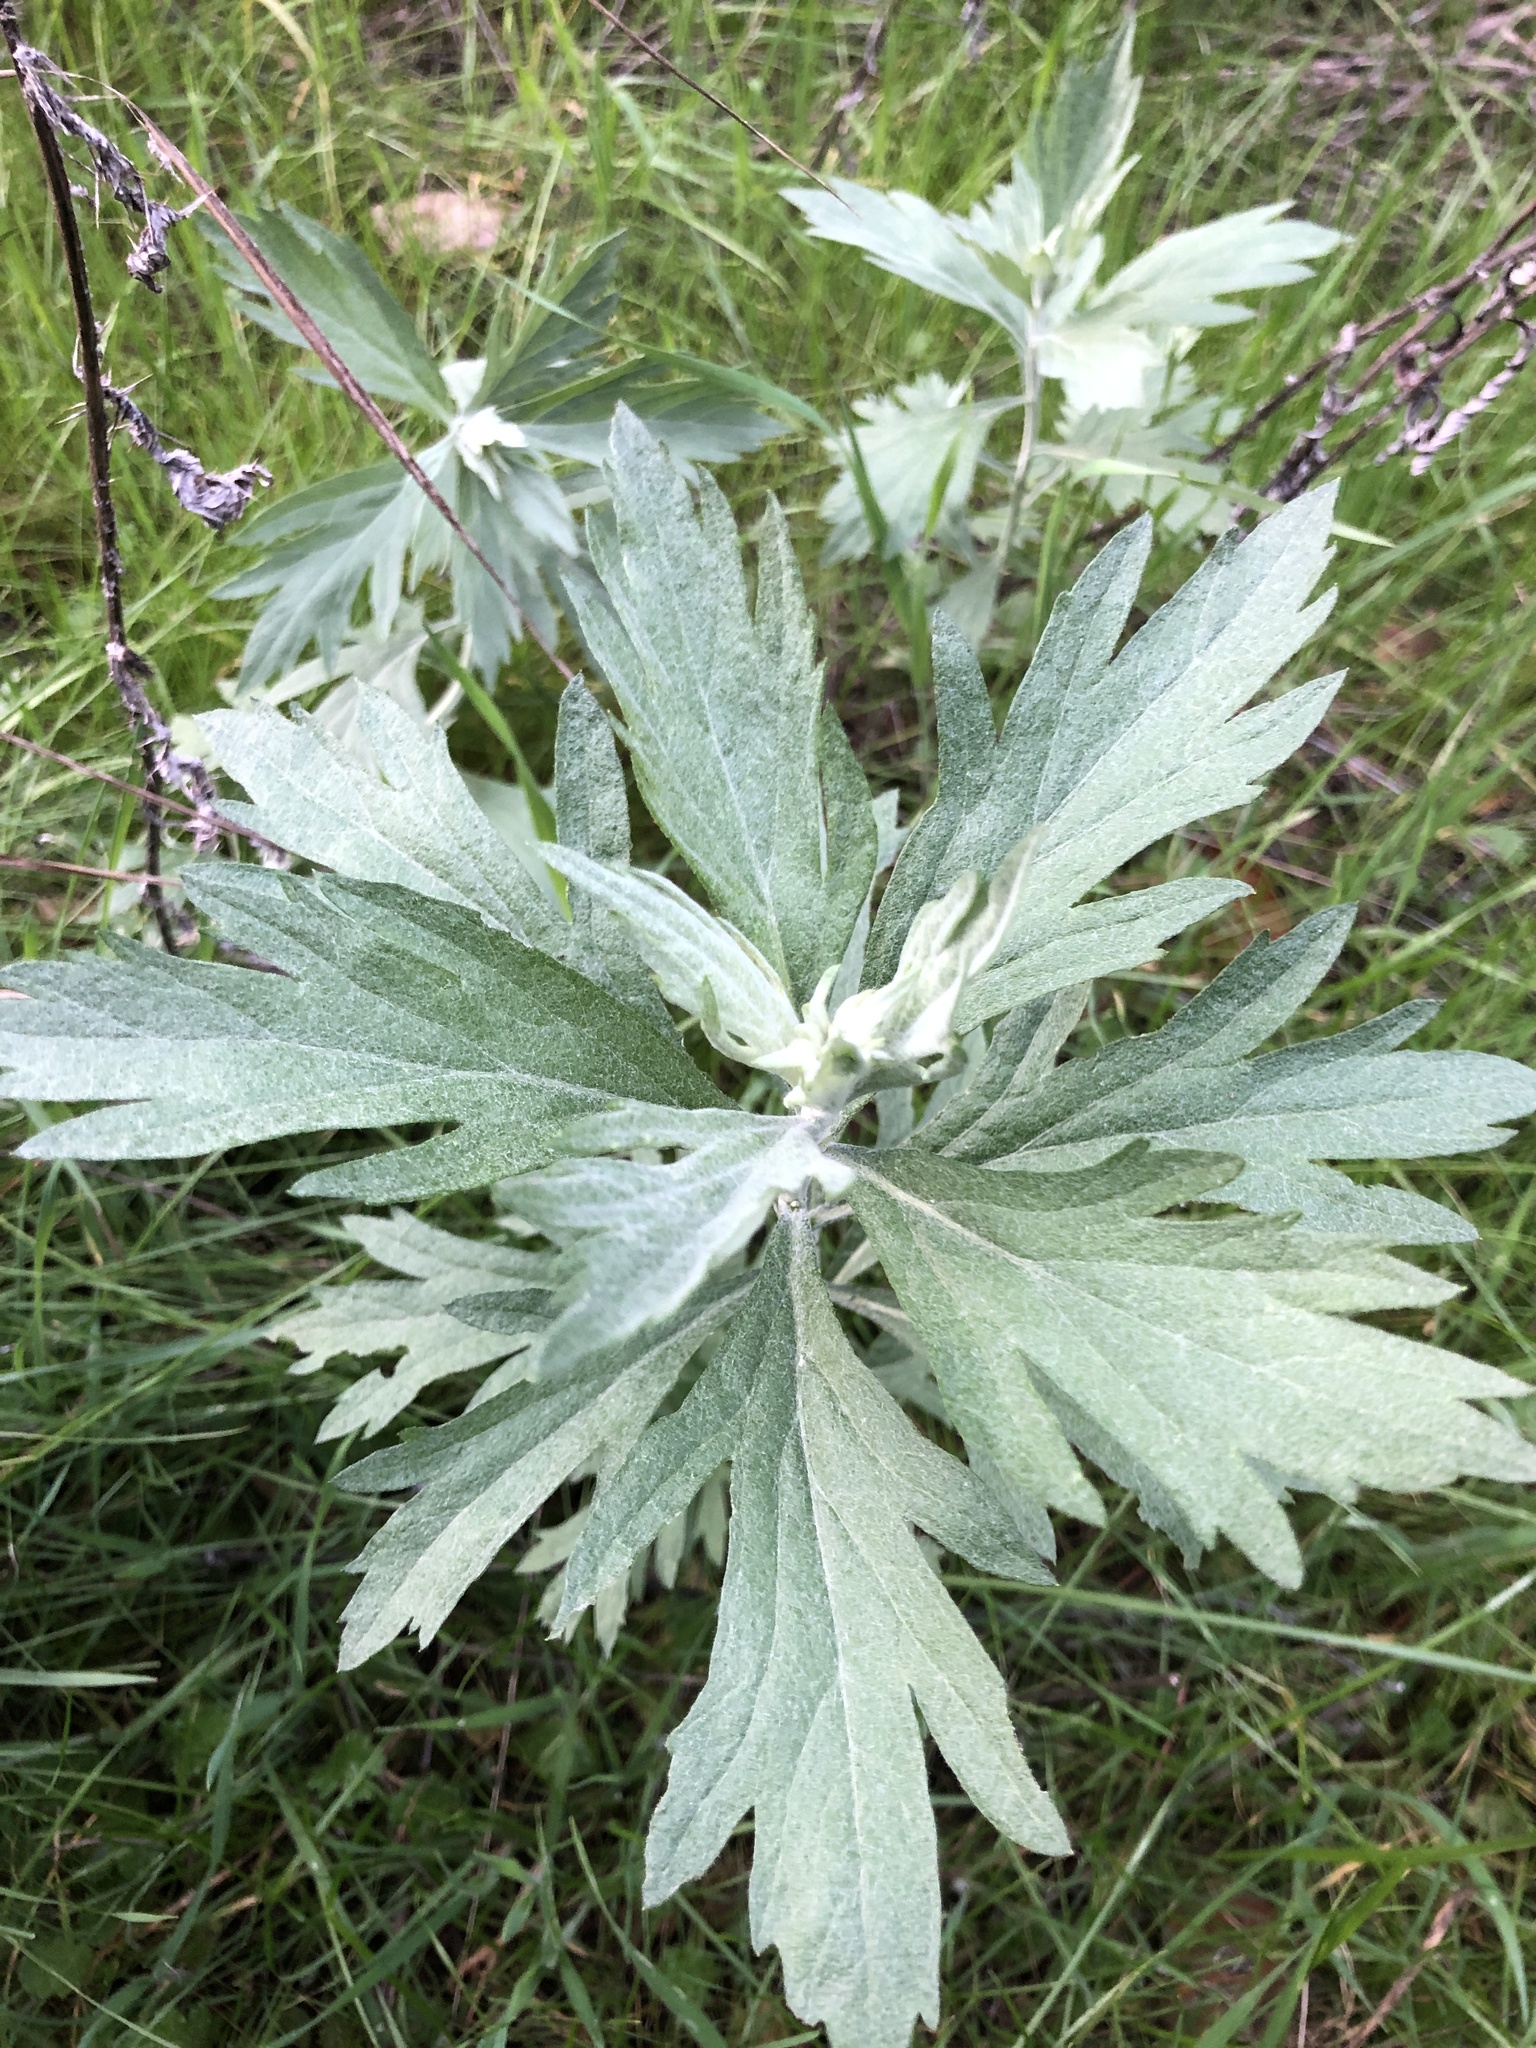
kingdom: Plantae
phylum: Tracheophyta
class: Magnoliopsida
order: Asterales
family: Asteraceae
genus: Artemisia
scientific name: Artemisia douglasiana
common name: Northwest mugwort
